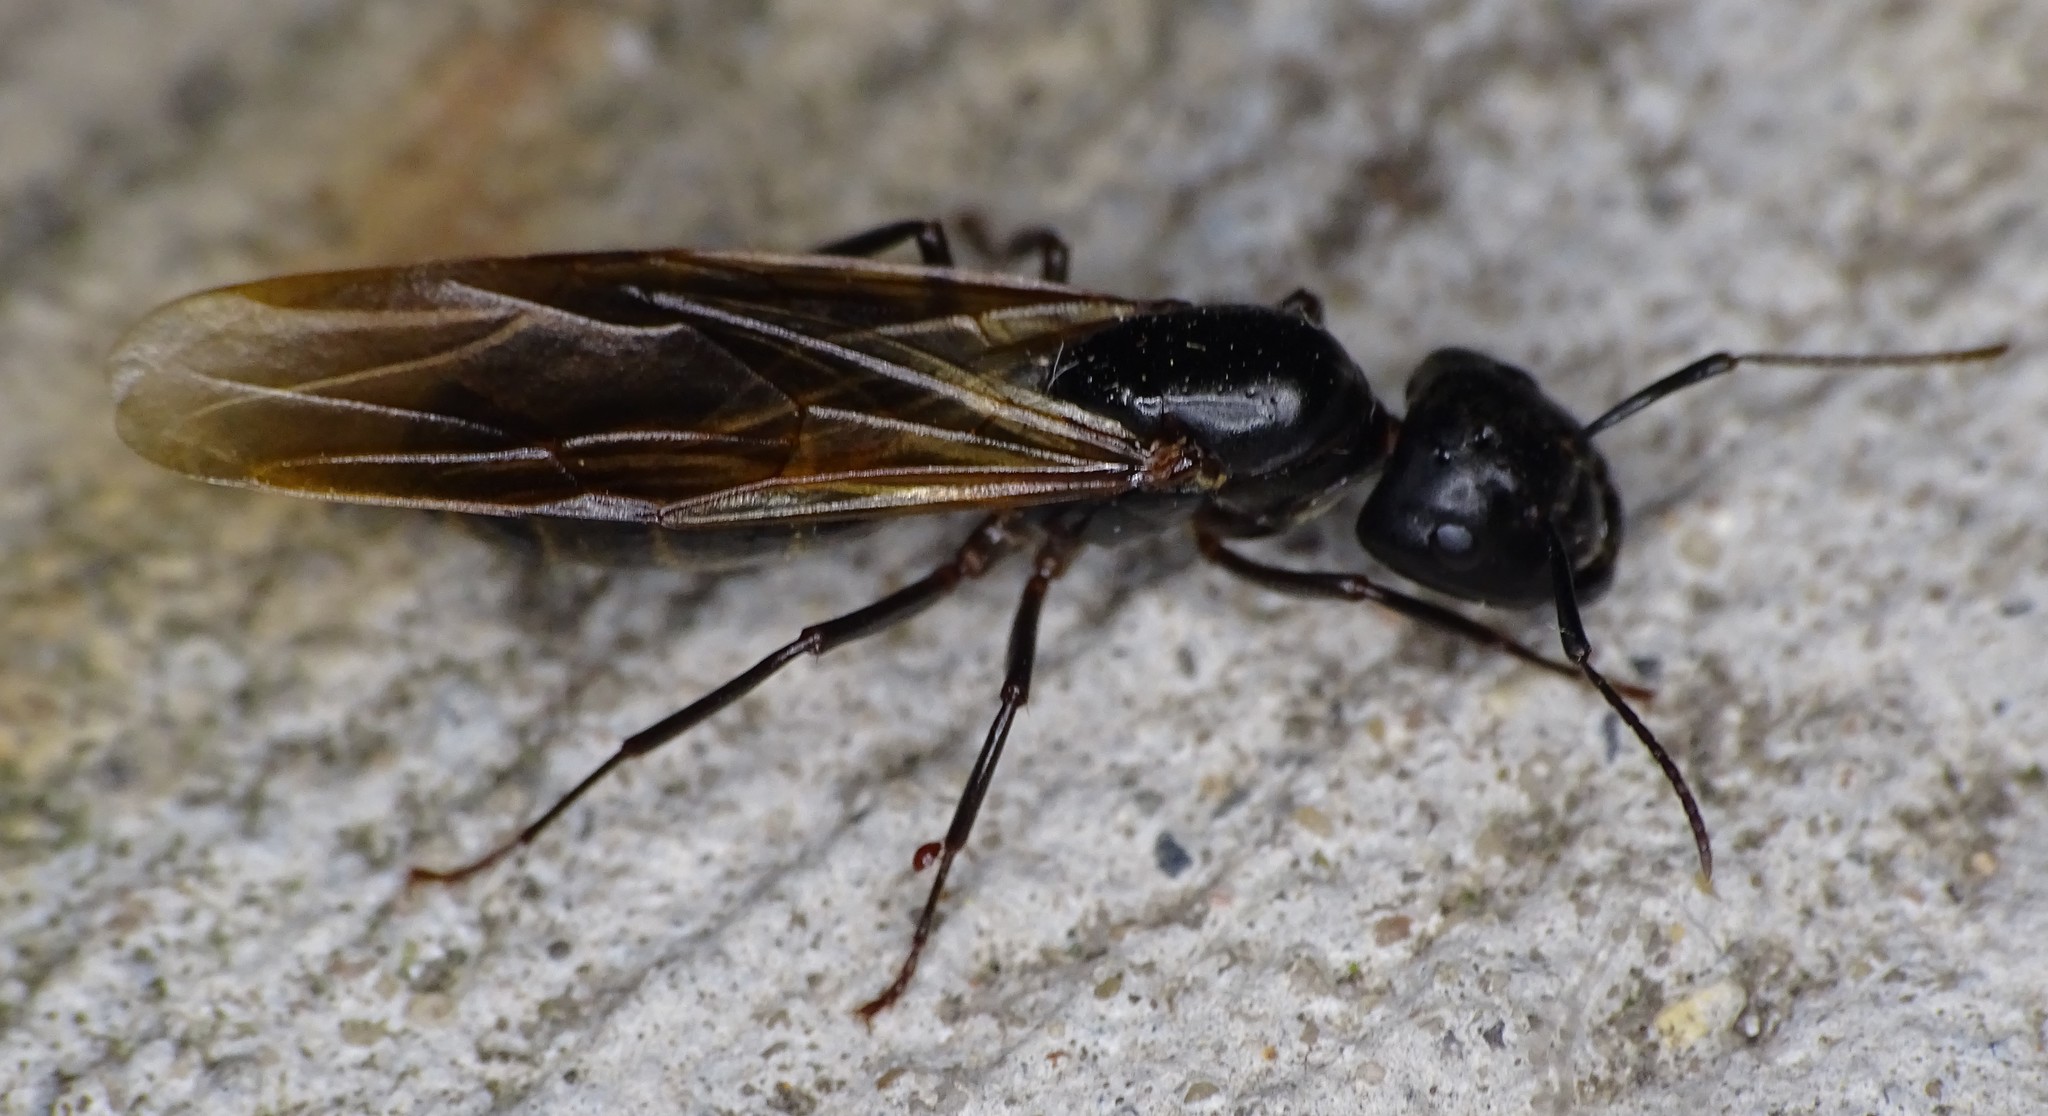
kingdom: Animalia
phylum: Arthropoda
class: Insecta
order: Hymenoptera
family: Formicidae
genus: Camponotus
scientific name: Camponotus pennsylvanicus
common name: Black carpenter ant
